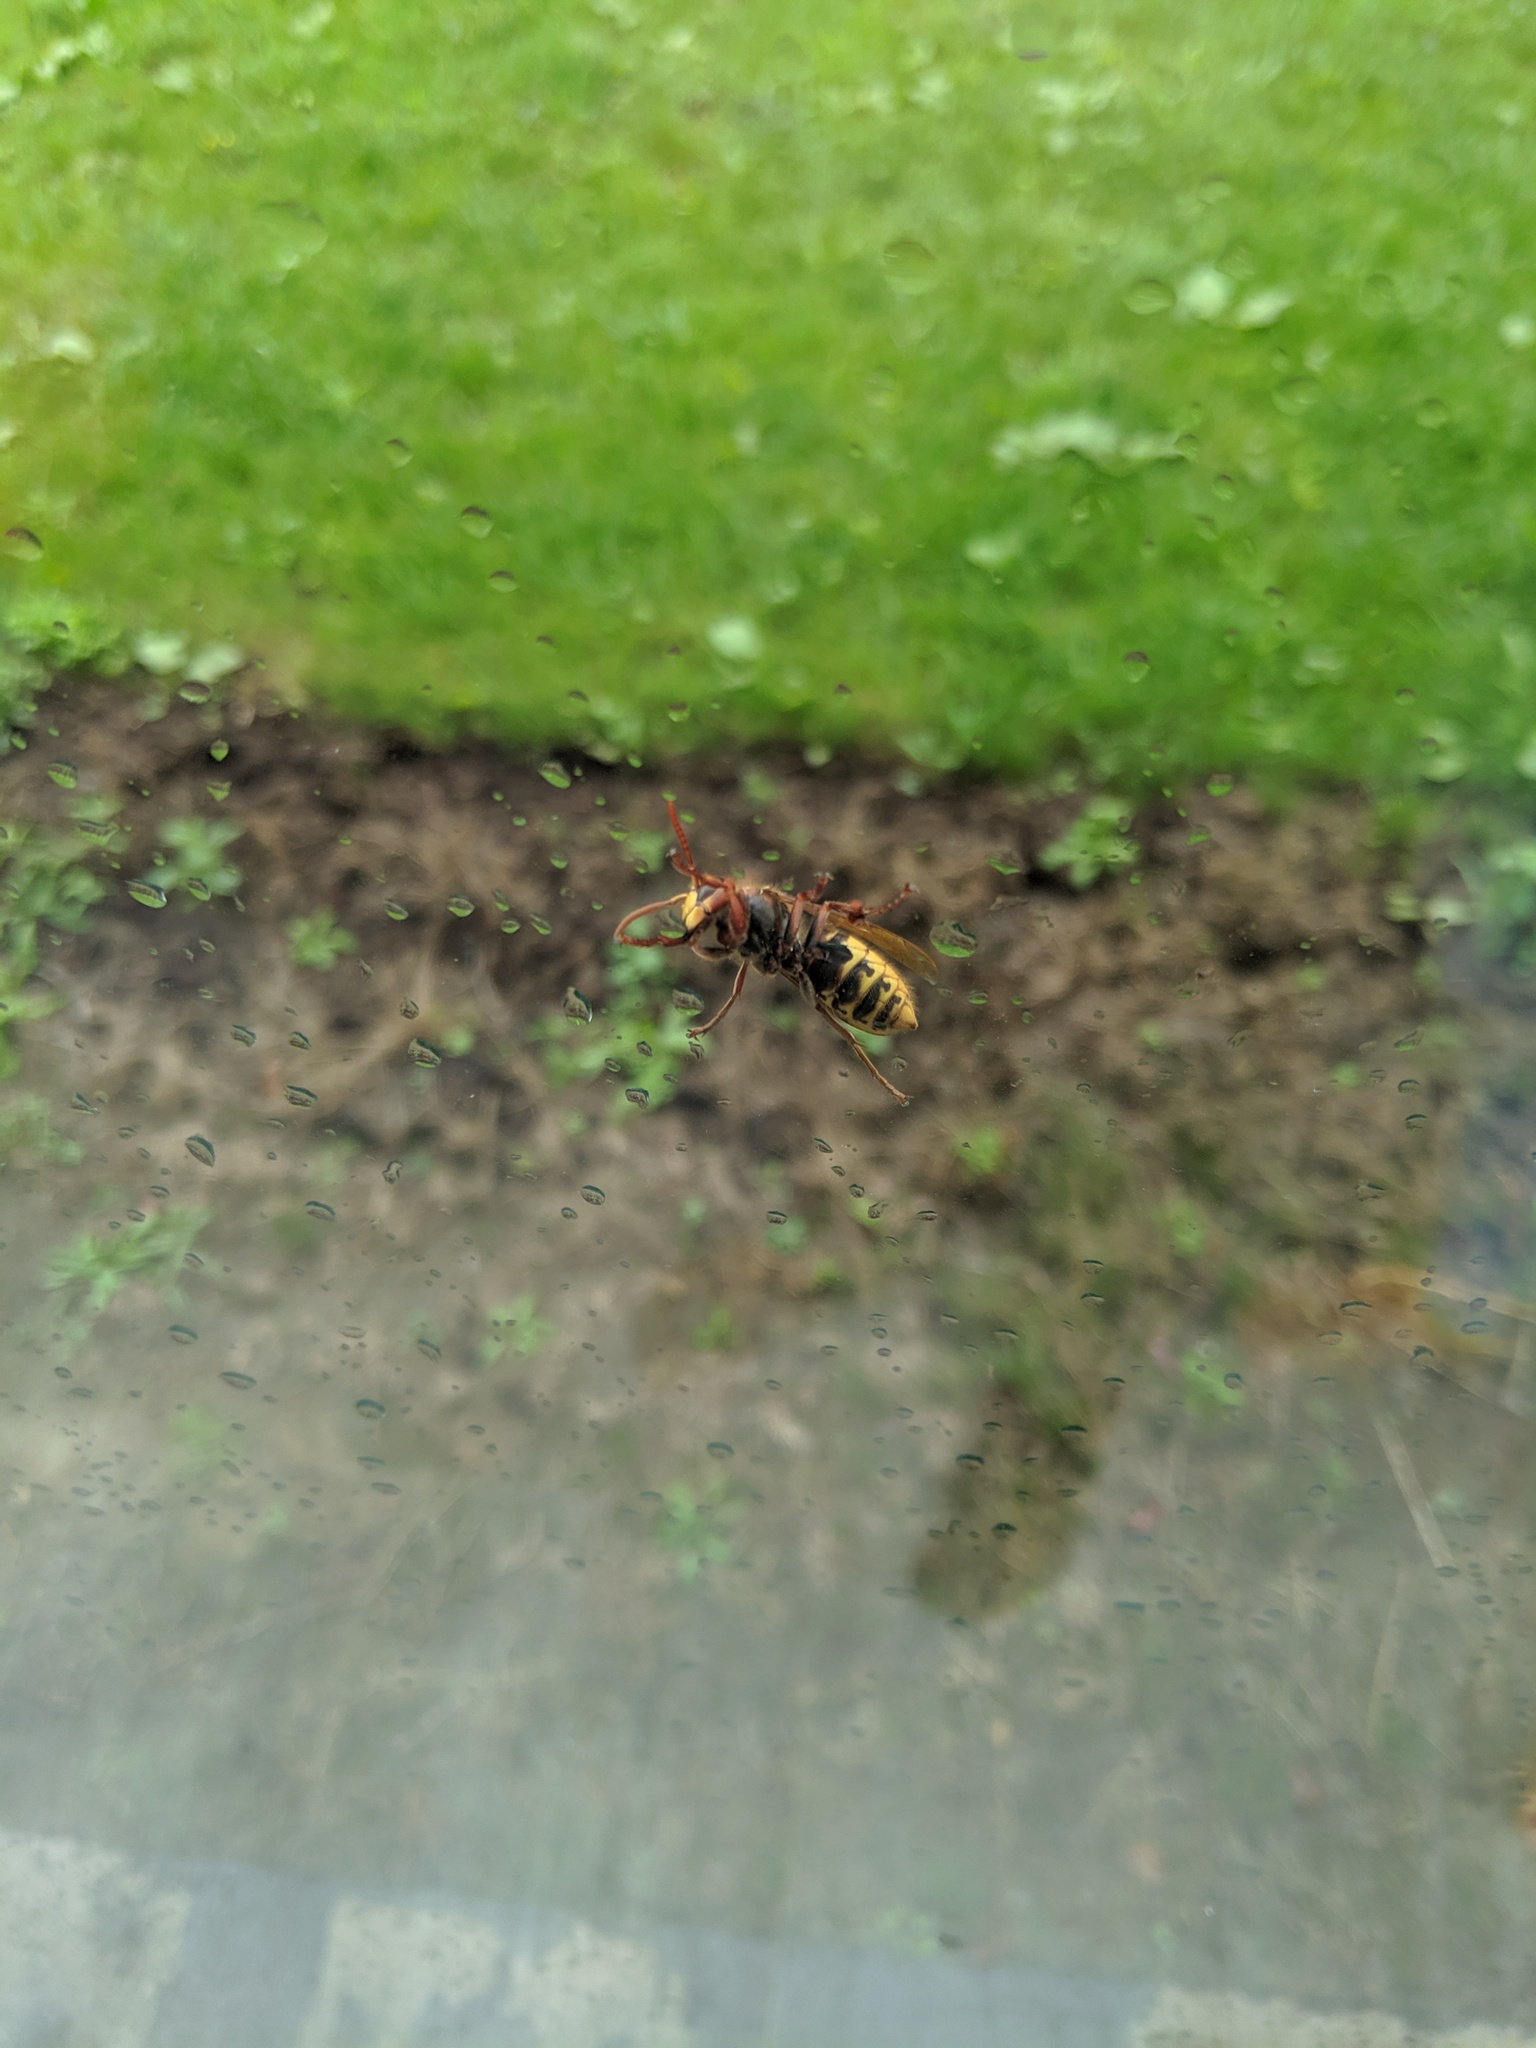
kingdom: Animalia
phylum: Arthropoda
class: Insecta
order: Hymenoptera
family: Vespidae
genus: Vespa
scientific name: Vespa crabro
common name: Hornet
